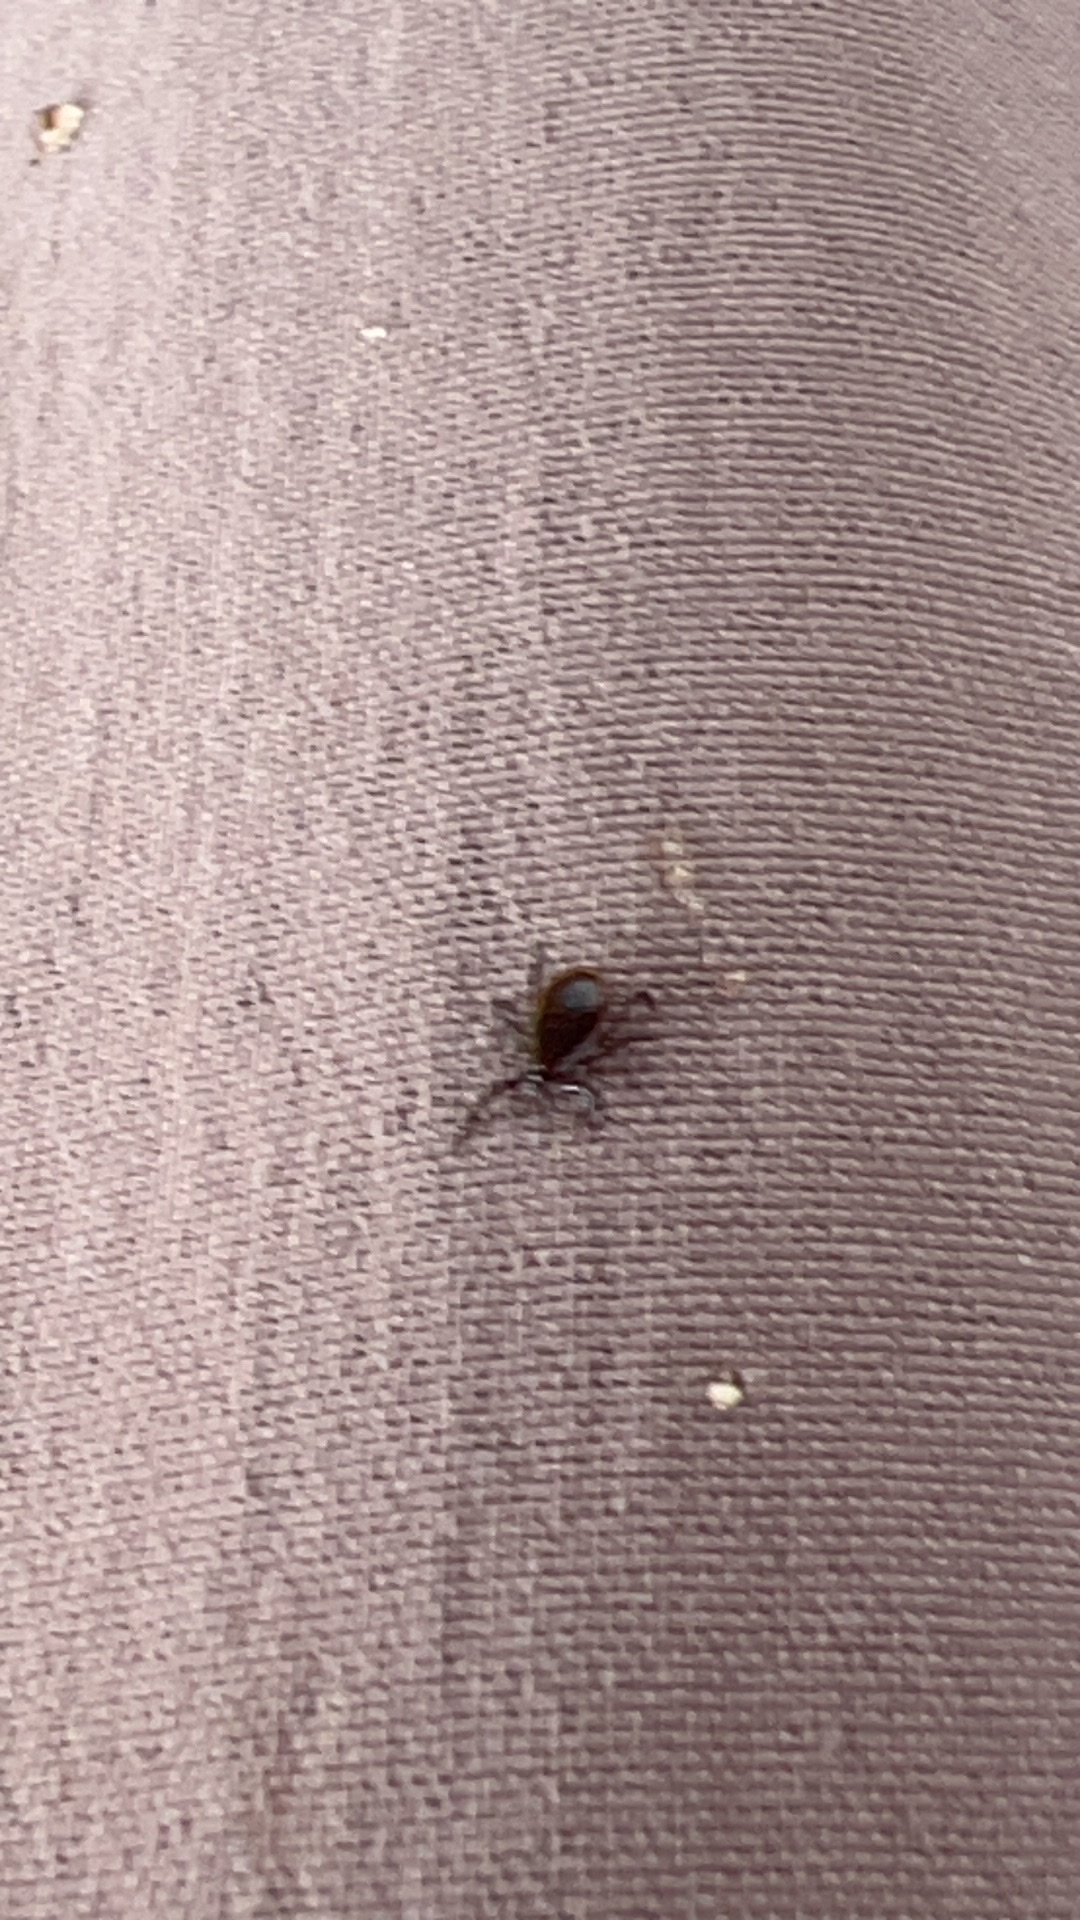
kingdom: Animalia
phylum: Arthropoda
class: Arachnida
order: Ixodida
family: Ixodidae
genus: Ixodes
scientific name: Ixodes scapularis
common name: Black legged tick
